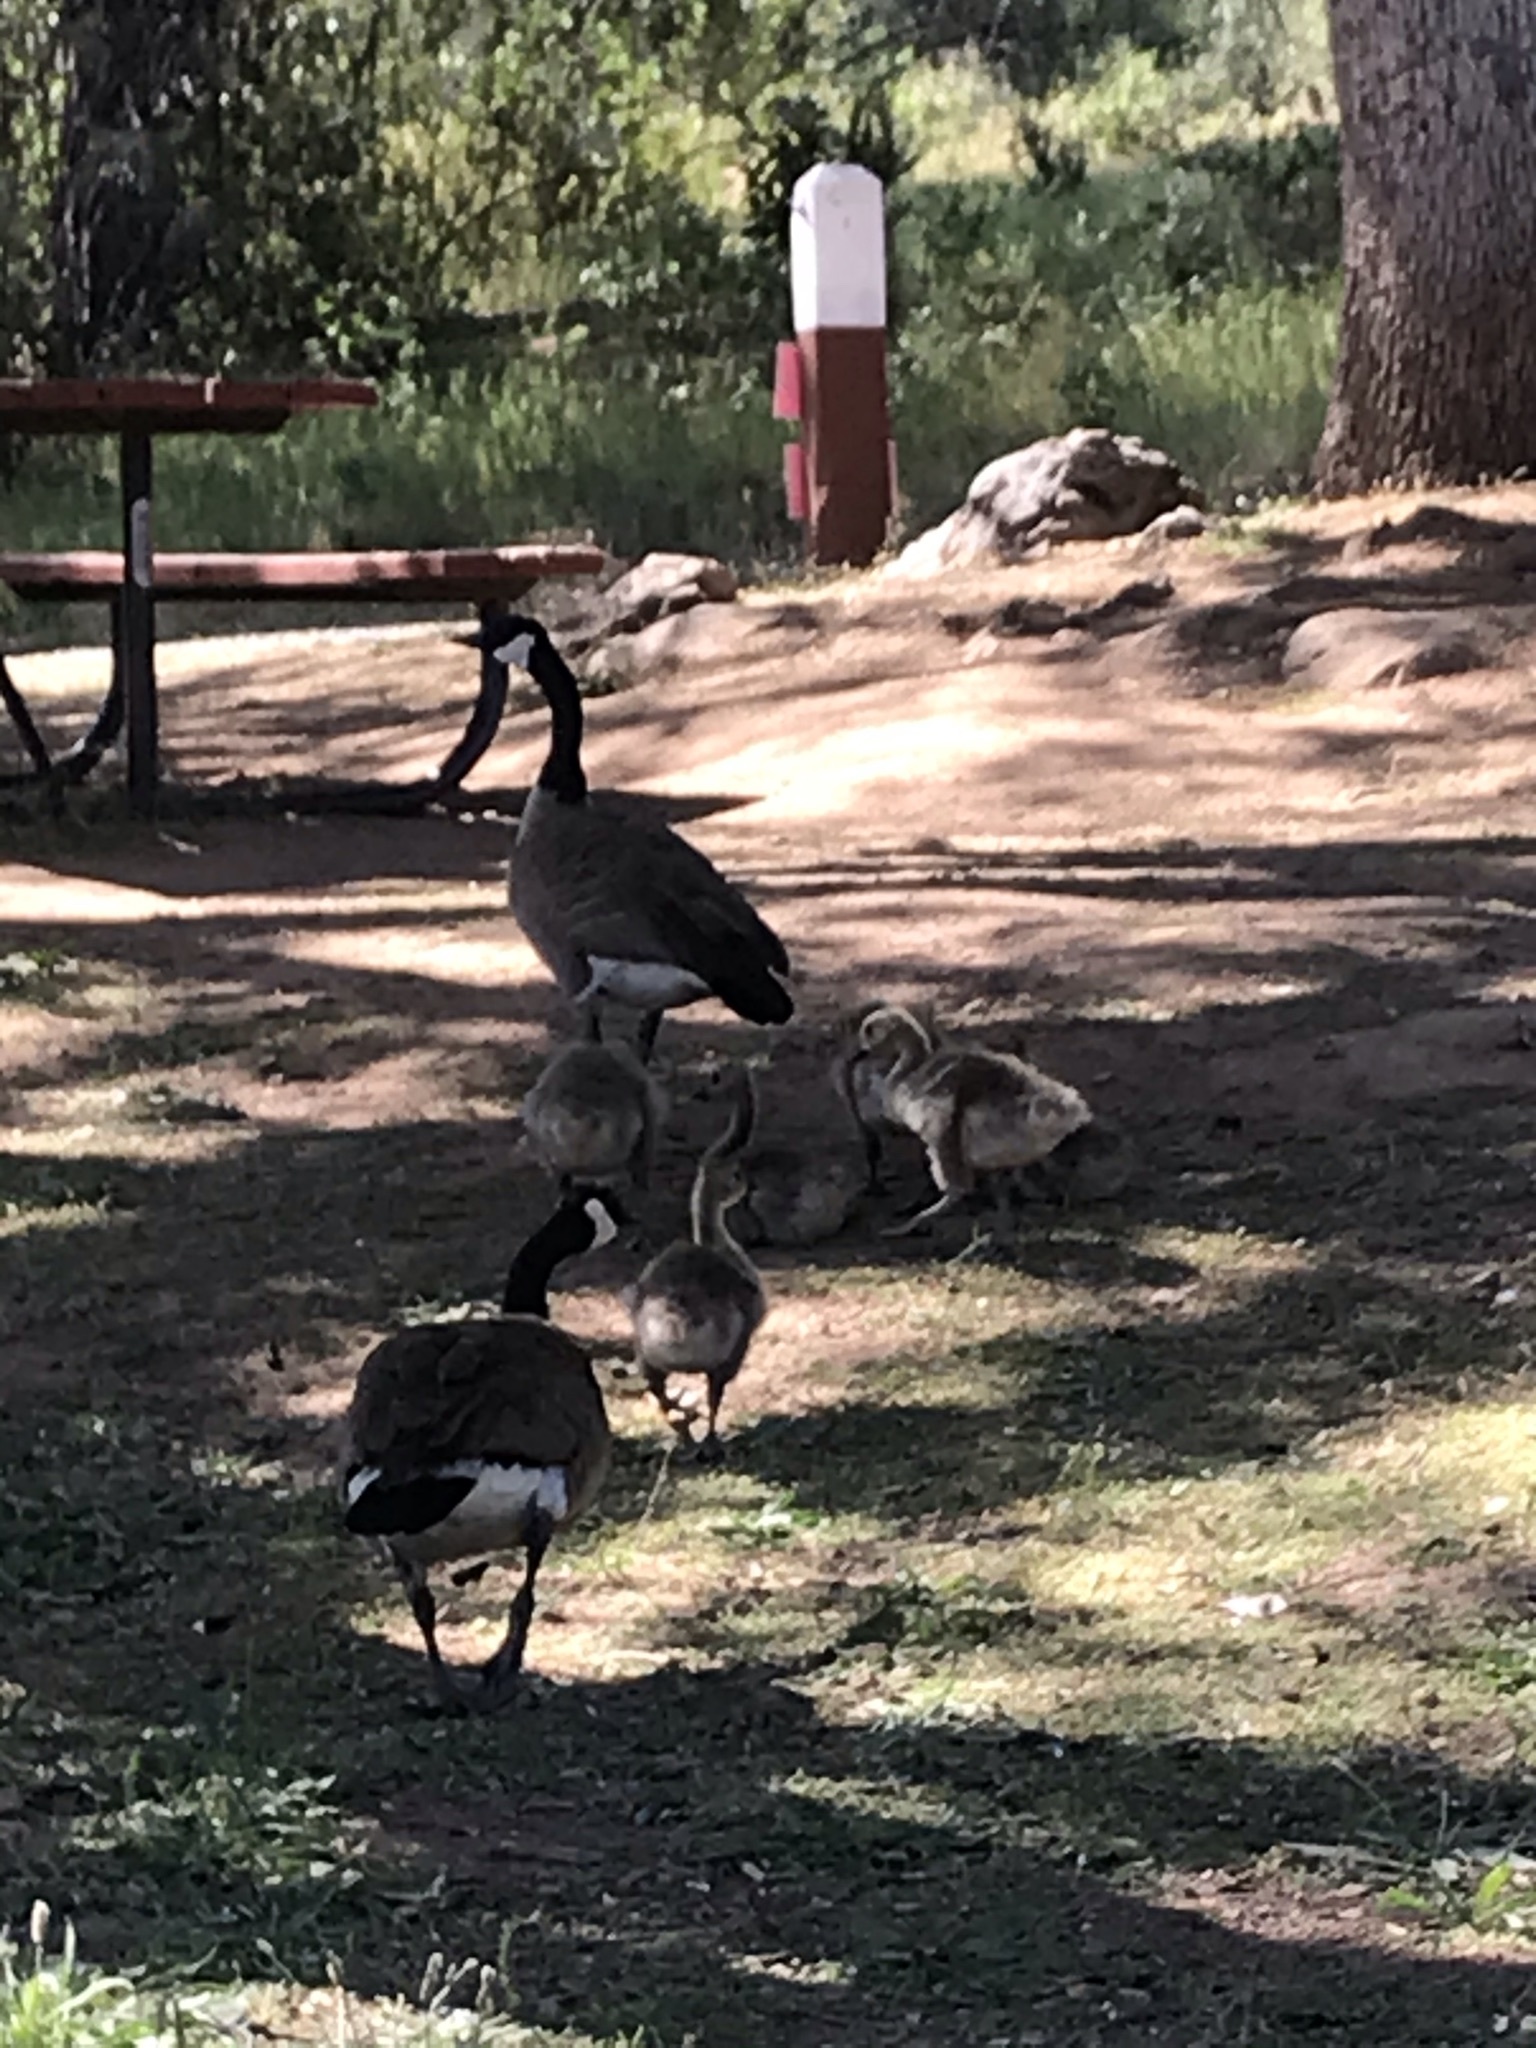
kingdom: Animalia
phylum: Chordata
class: Aves
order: Anseriformes
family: Anatidae
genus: Branta
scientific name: Branta canadensis
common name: Canada goose
